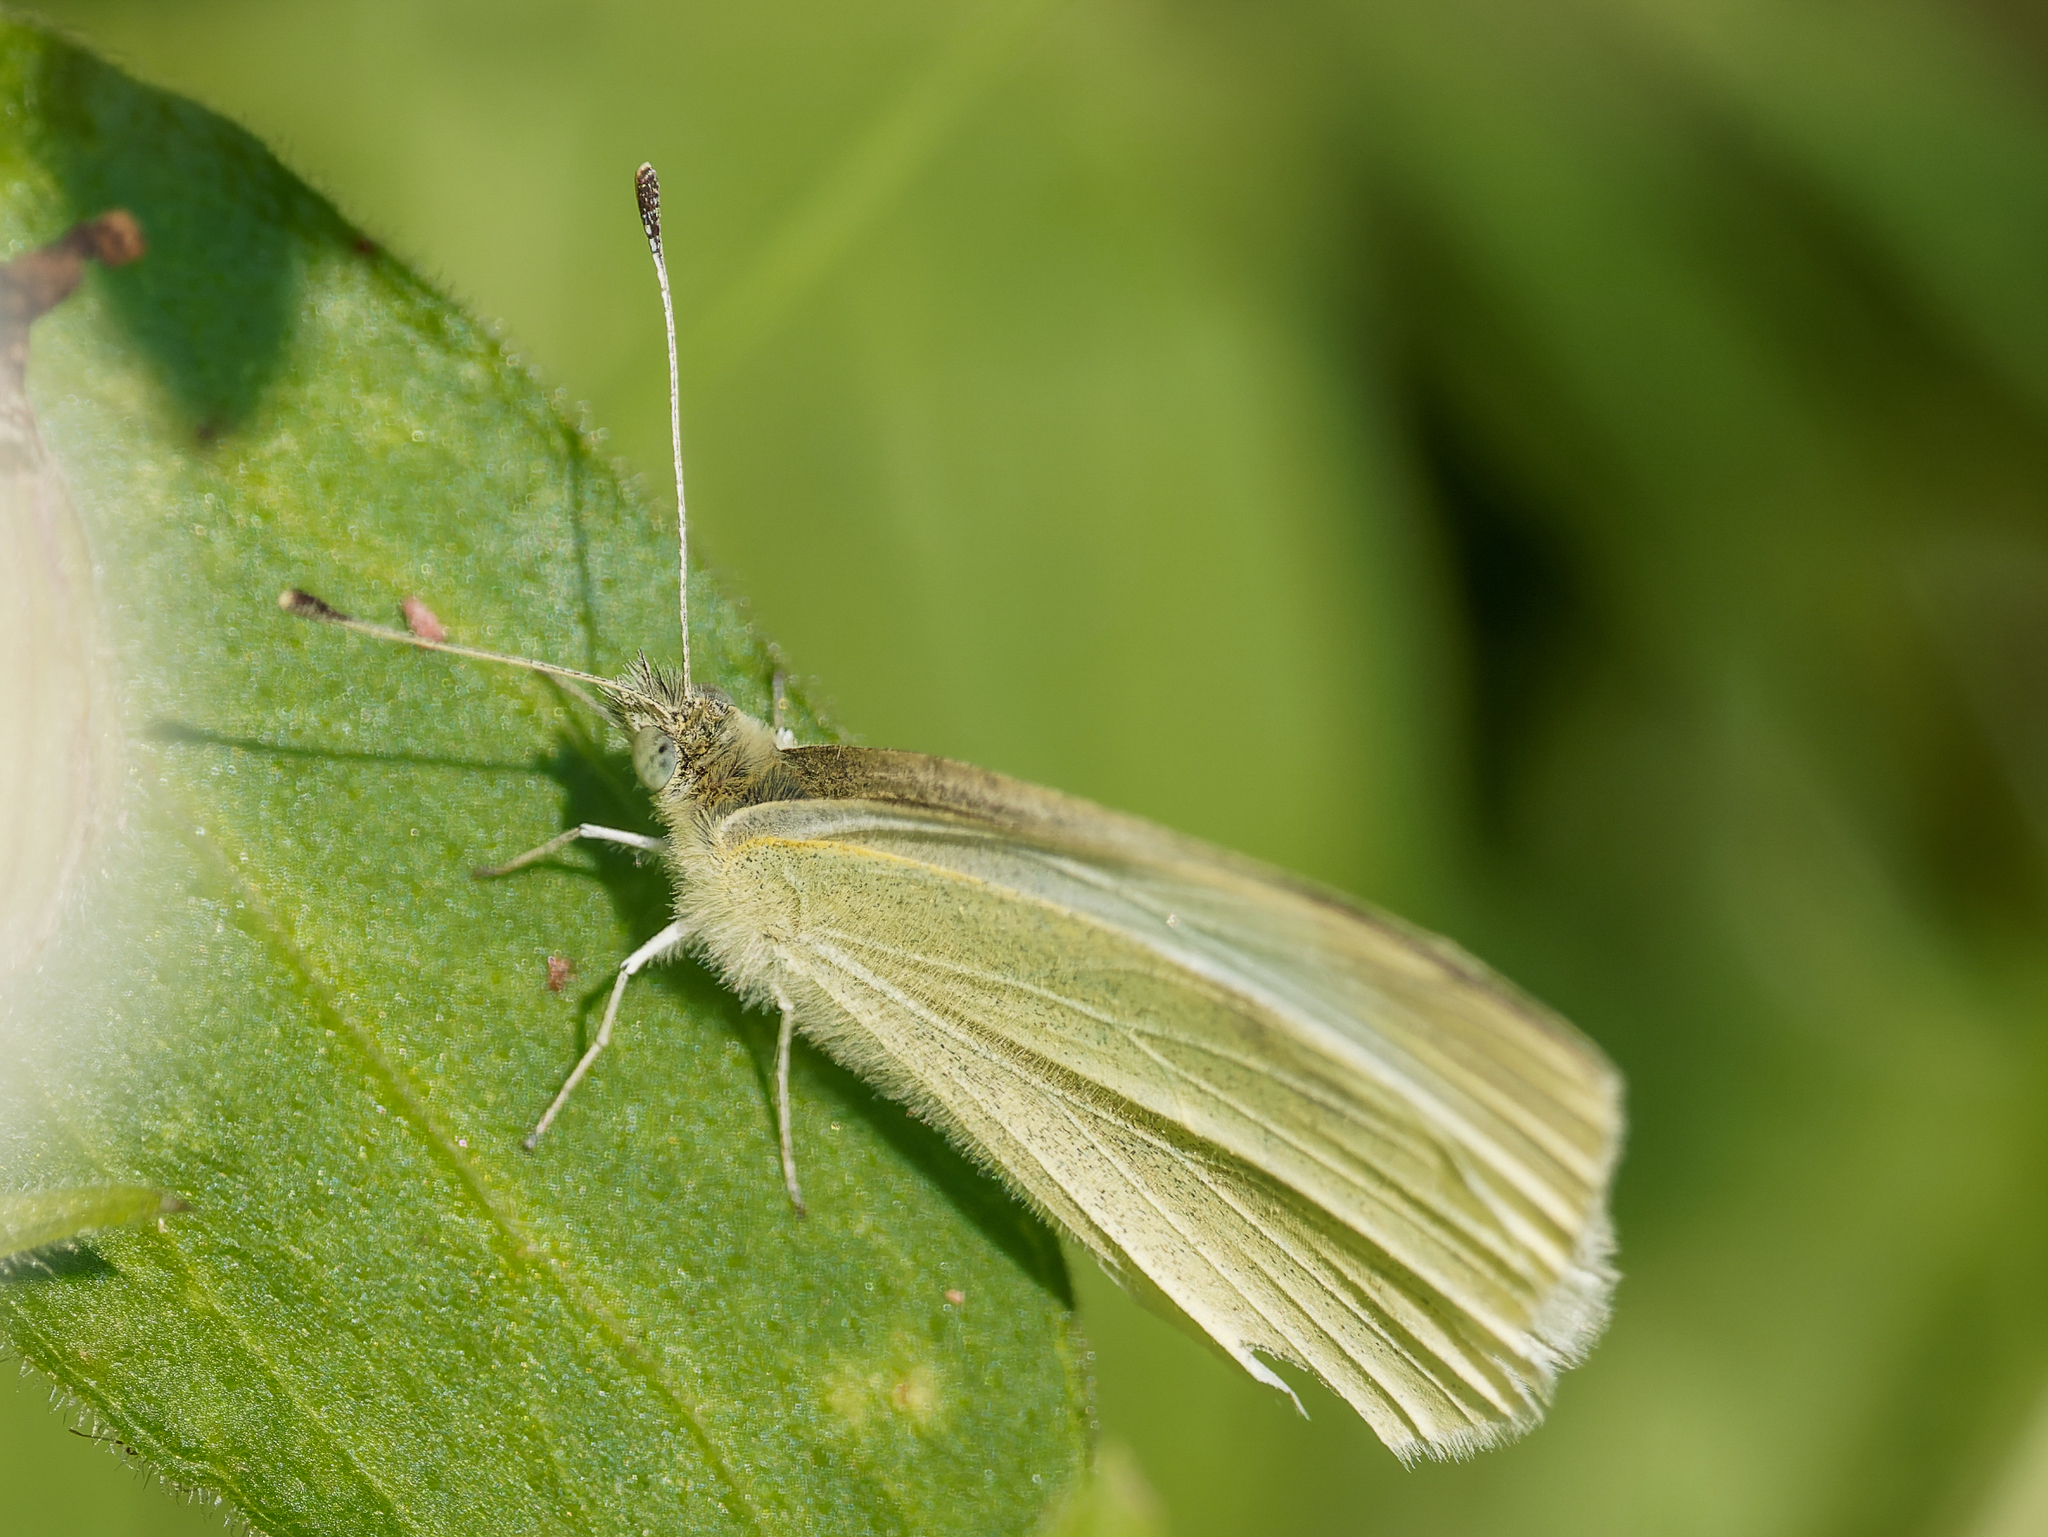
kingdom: Animalia
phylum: Arthropoda
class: Insecta
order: Lepidoptera
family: Pieridae
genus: Pieris
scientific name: Pieris rapae
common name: Small white
